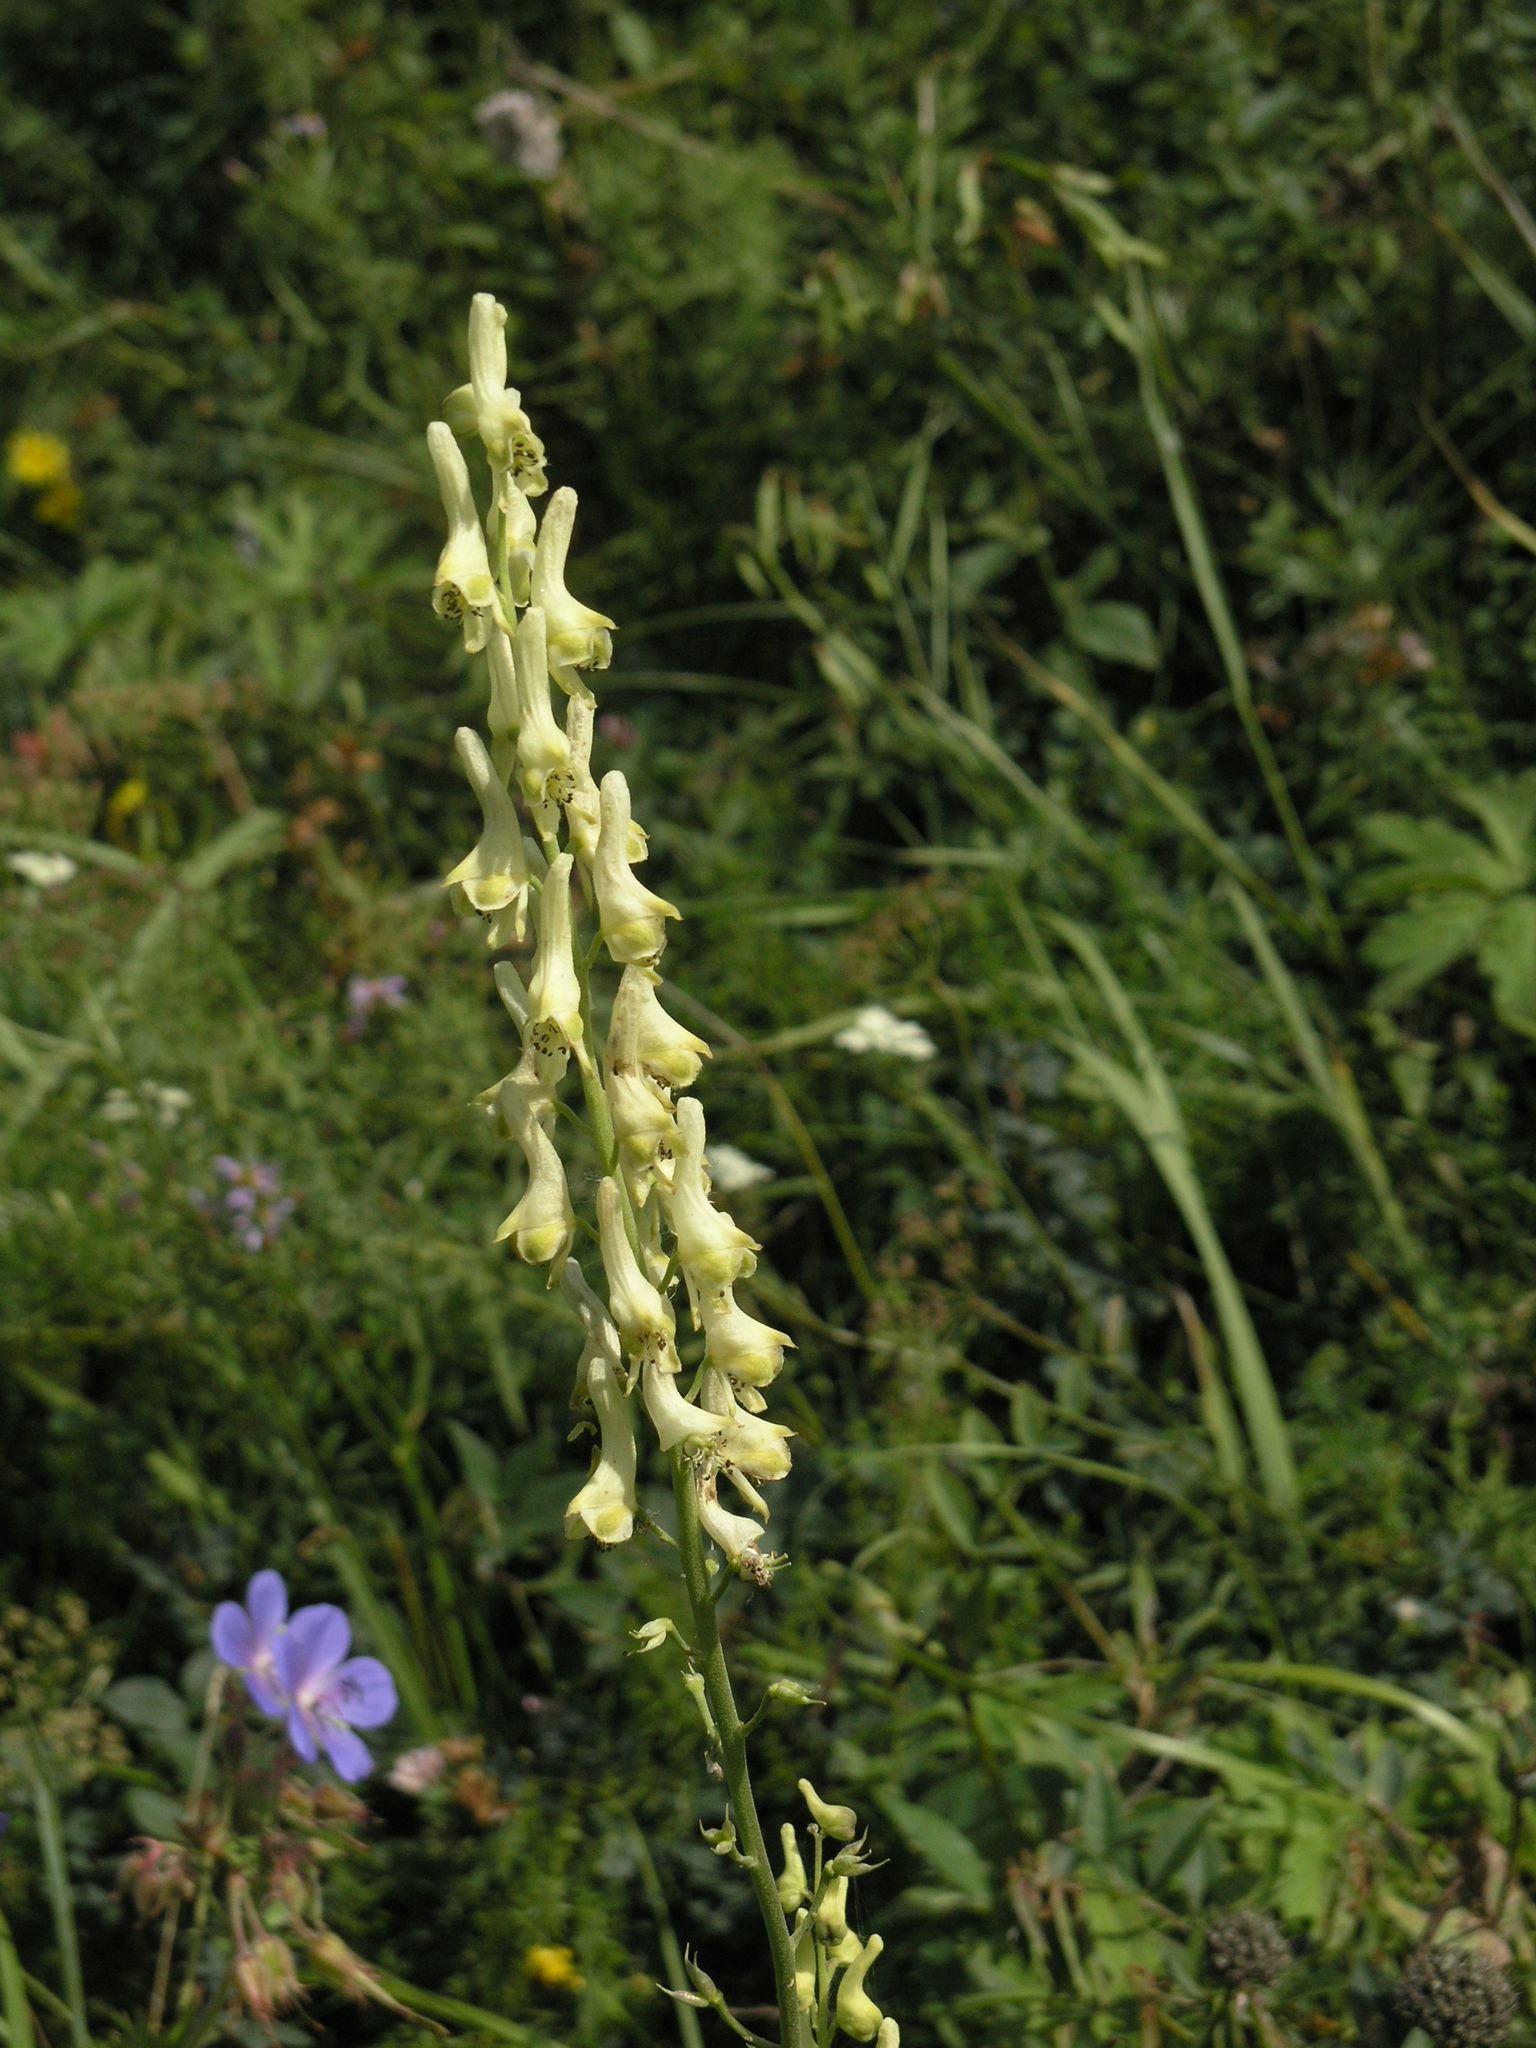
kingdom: Plantae
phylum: Tracheophyta
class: Magnoliopsida
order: Ranunculales
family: Ranunculaceae
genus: Aconitum
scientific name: Aconitum barbatum
